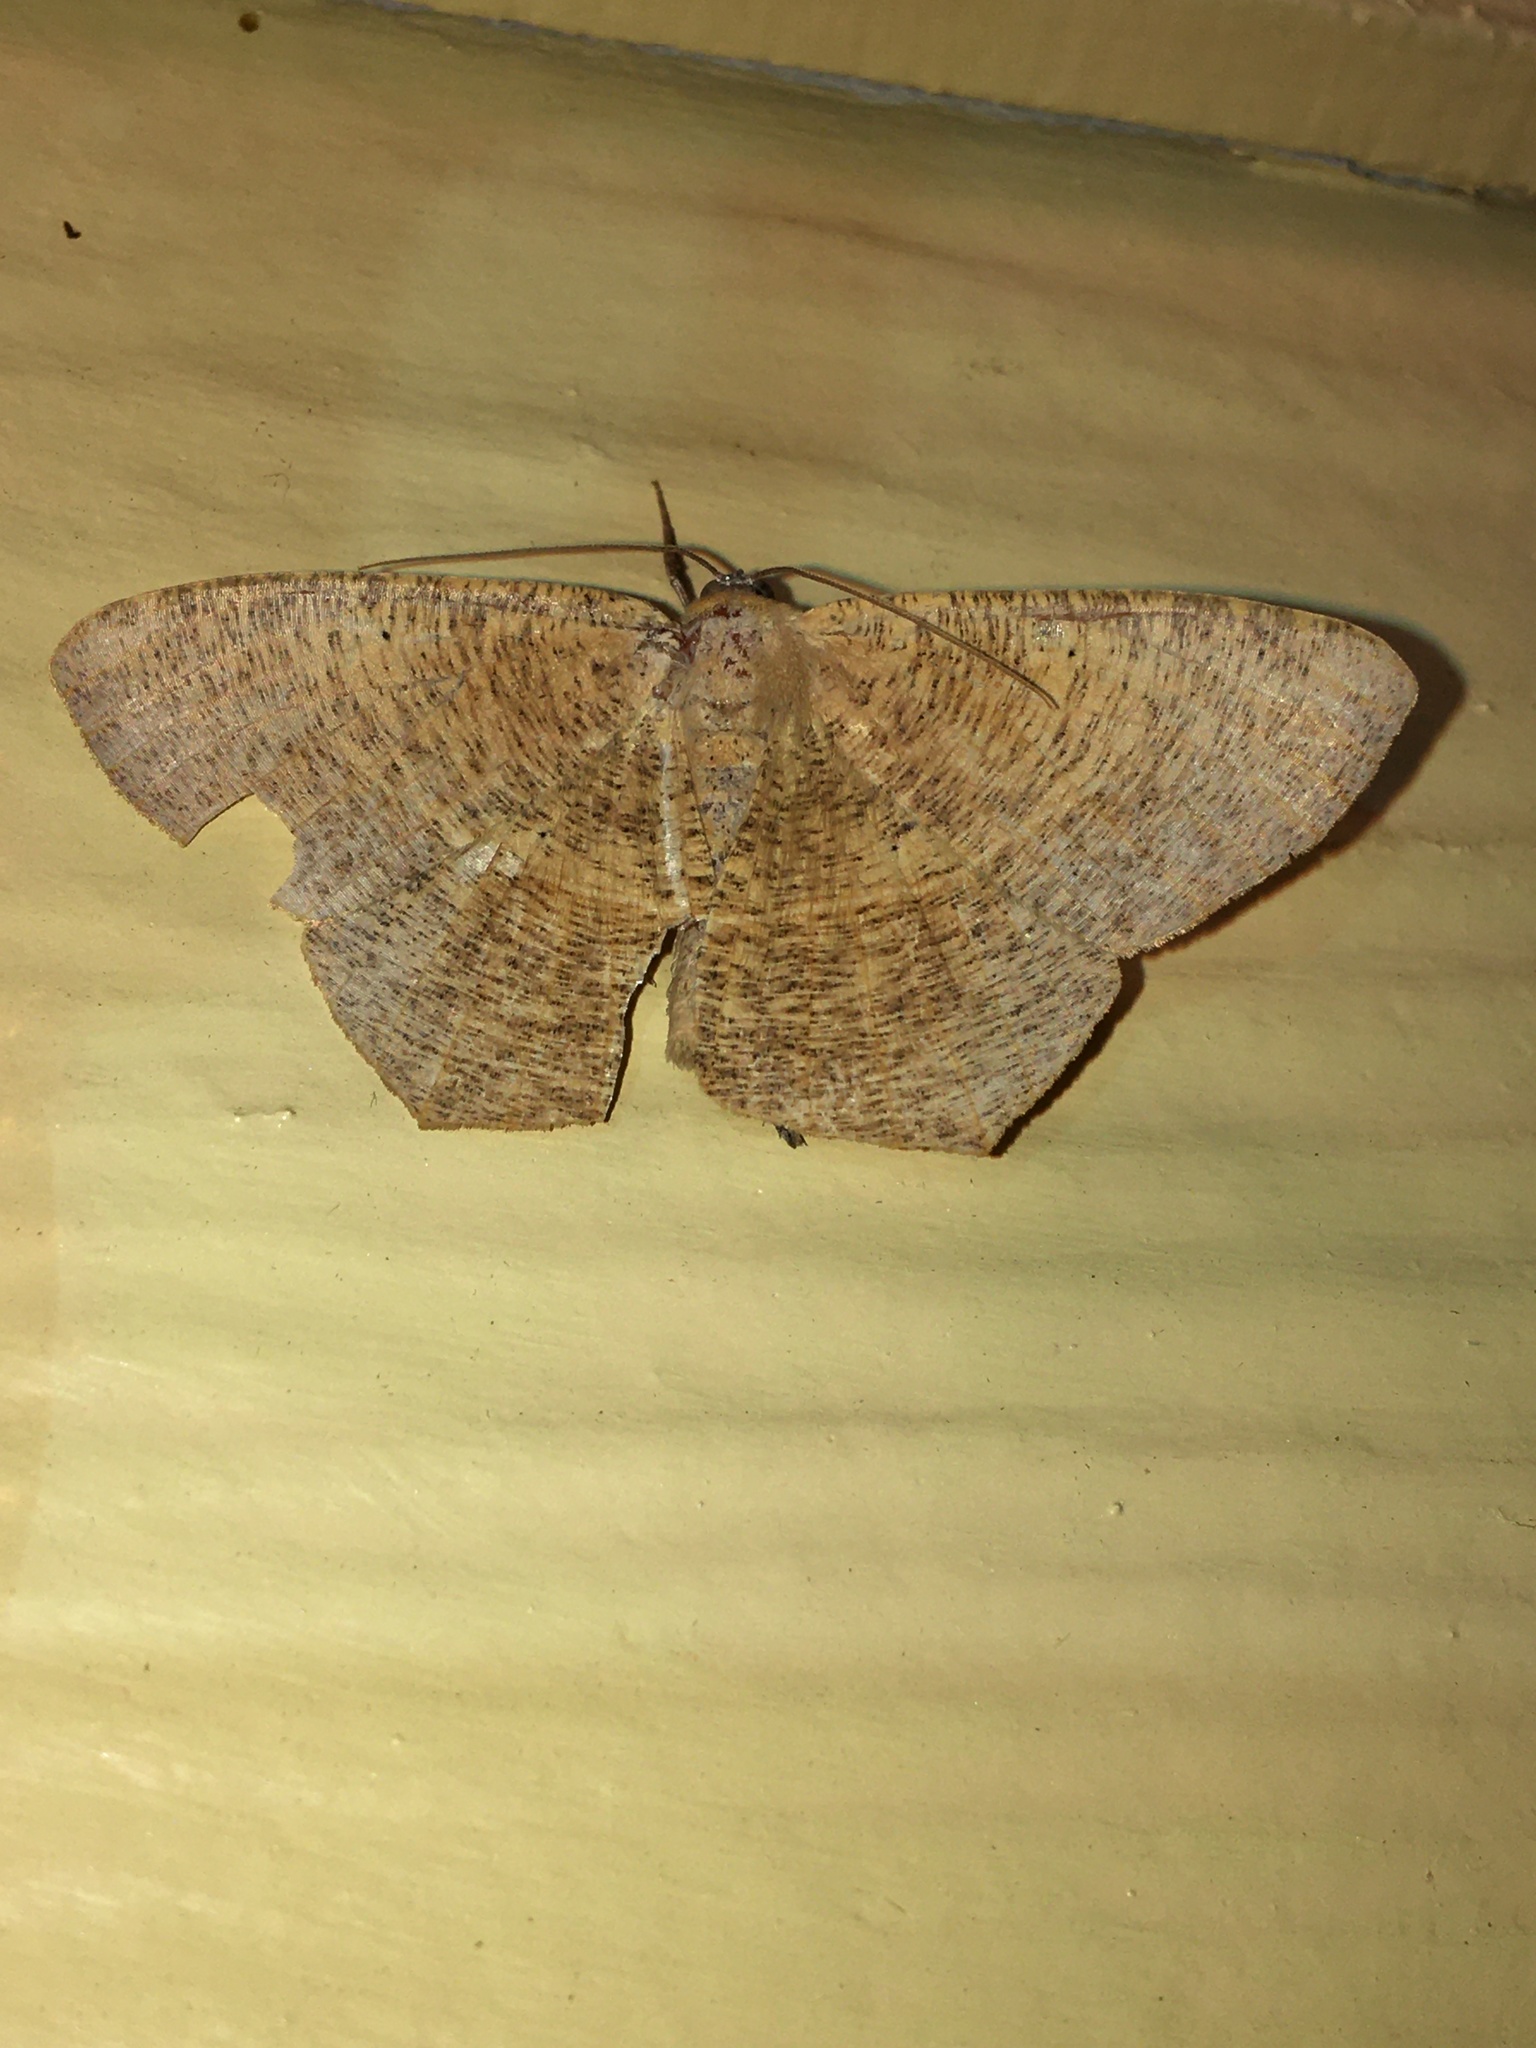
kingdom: Animalia
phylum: Arthropoda
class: Insecta
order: Lepidoptera
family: Geometridae
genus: Prochoerodes
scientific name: Prochoerodes lineola
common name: Large maple spanworm
